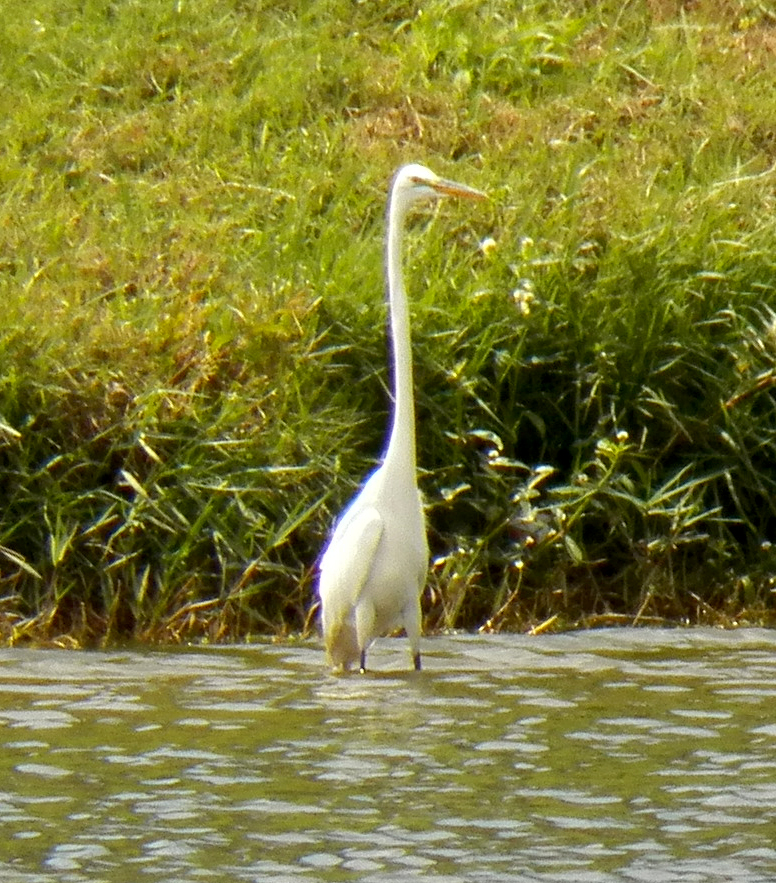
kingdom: Animalia
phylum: Chordata
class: Aves
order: Pelecaniformes
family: Ardeidae
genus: Ardea
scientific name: Ardea alba
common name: Great egret
